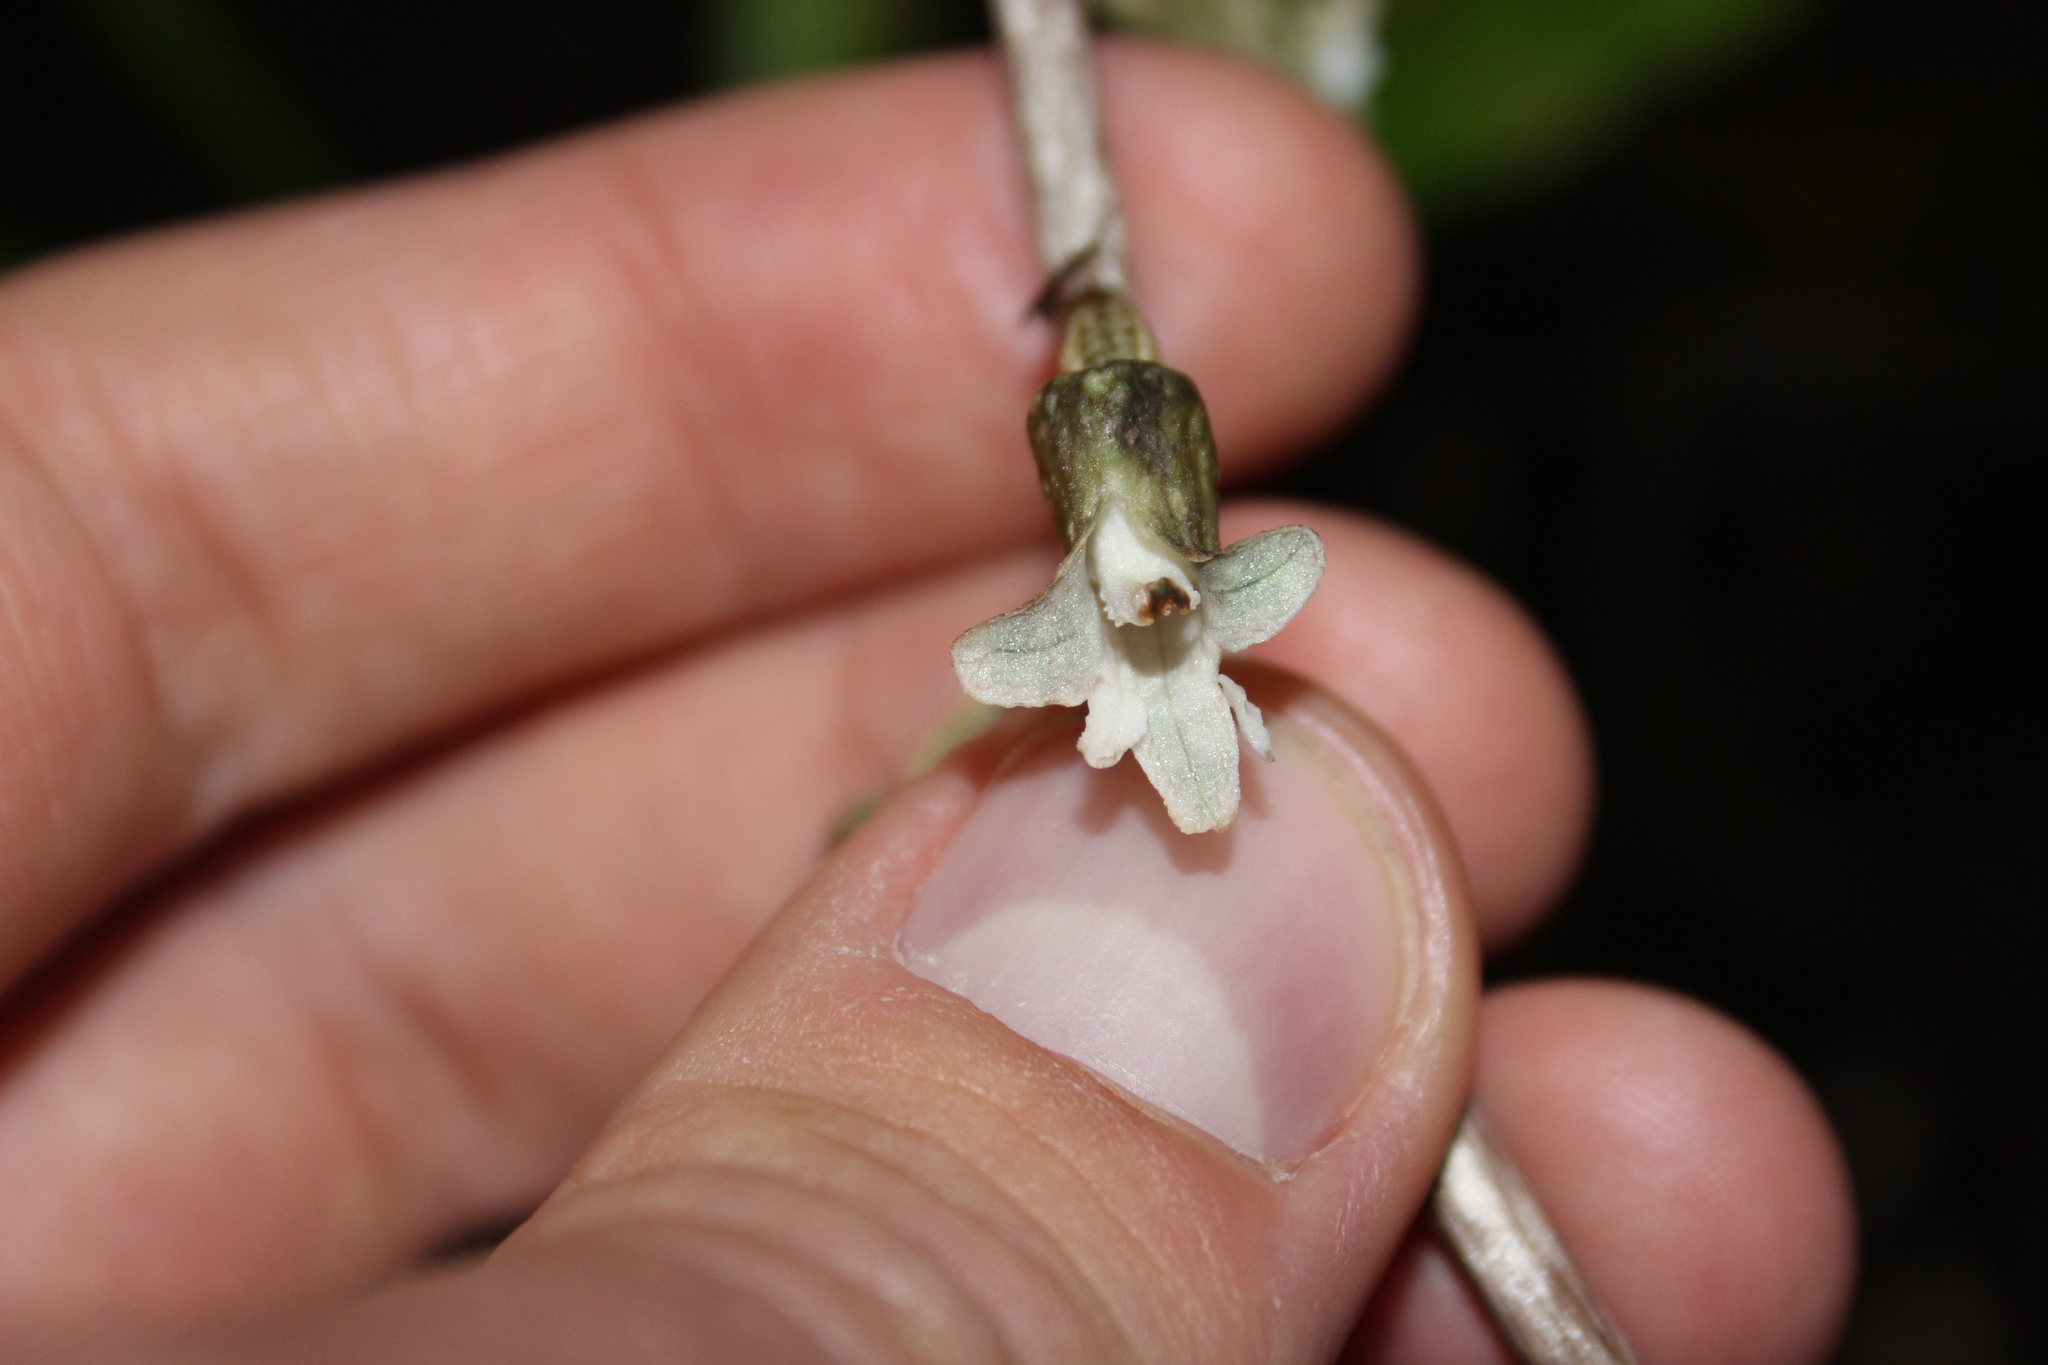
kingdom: Plantae
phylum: Tracheophyta
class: Liliopsida
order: Asparagales
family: Orchidaceae
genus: Gastrodia
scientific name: Gastrodia cunninghamii
